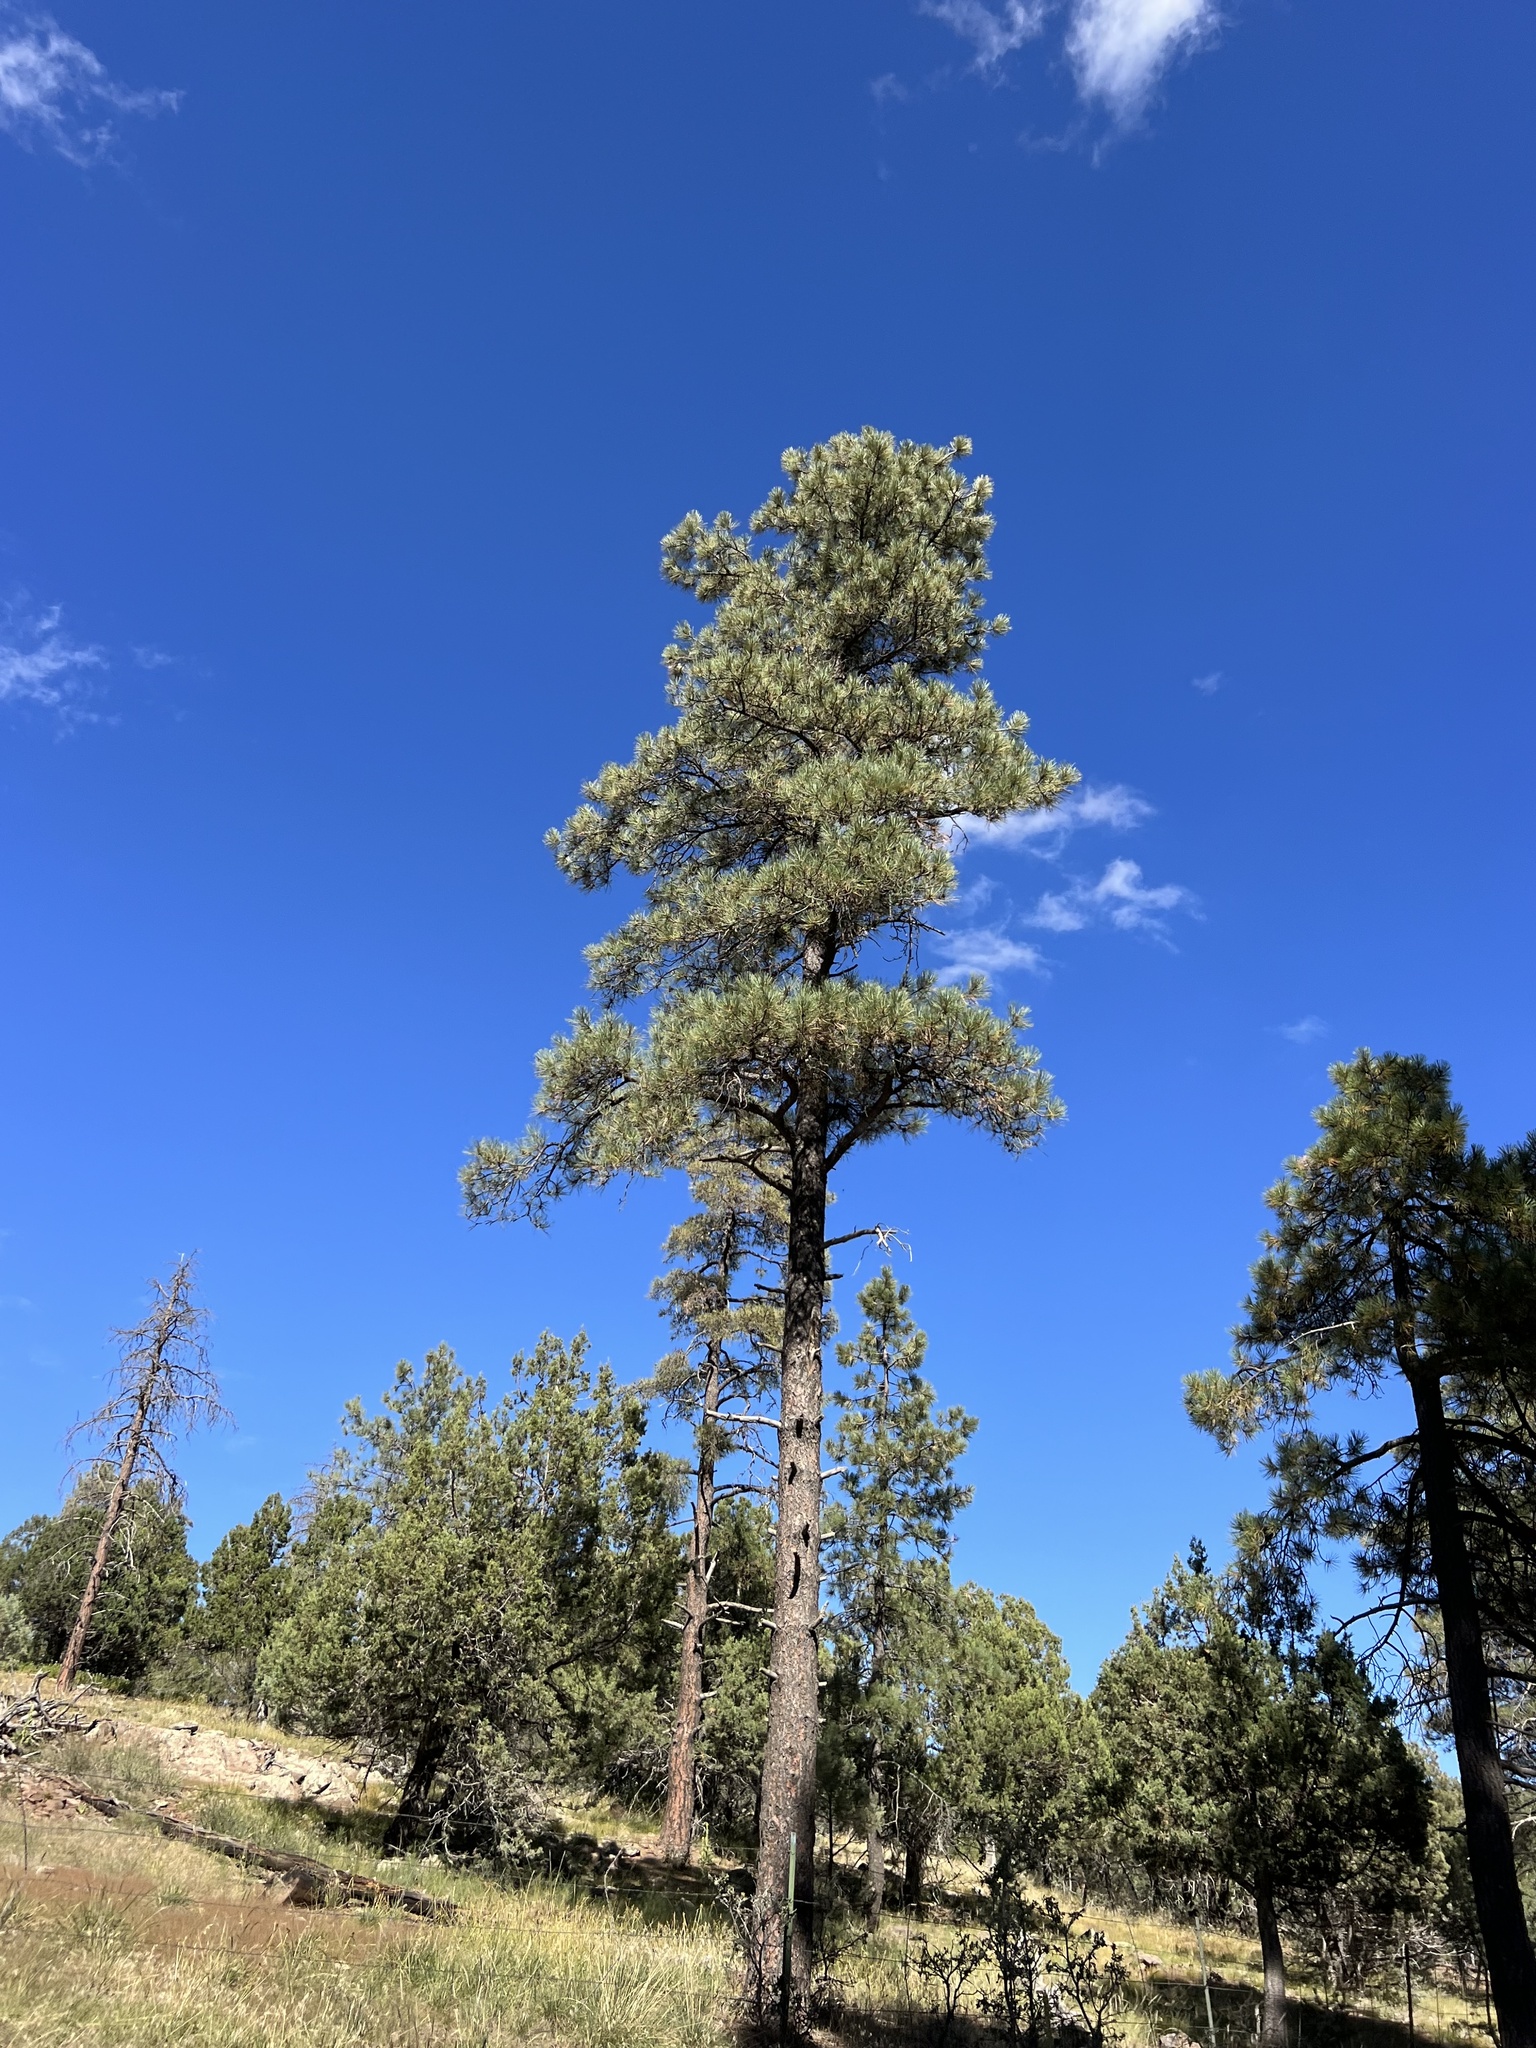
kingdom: Plantae
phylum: Tracheophyta
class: Pinopsida
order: Pinales
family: Pinaceae
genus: Pinus
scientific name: Pinus ponderosa
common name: Western yellow-pine
